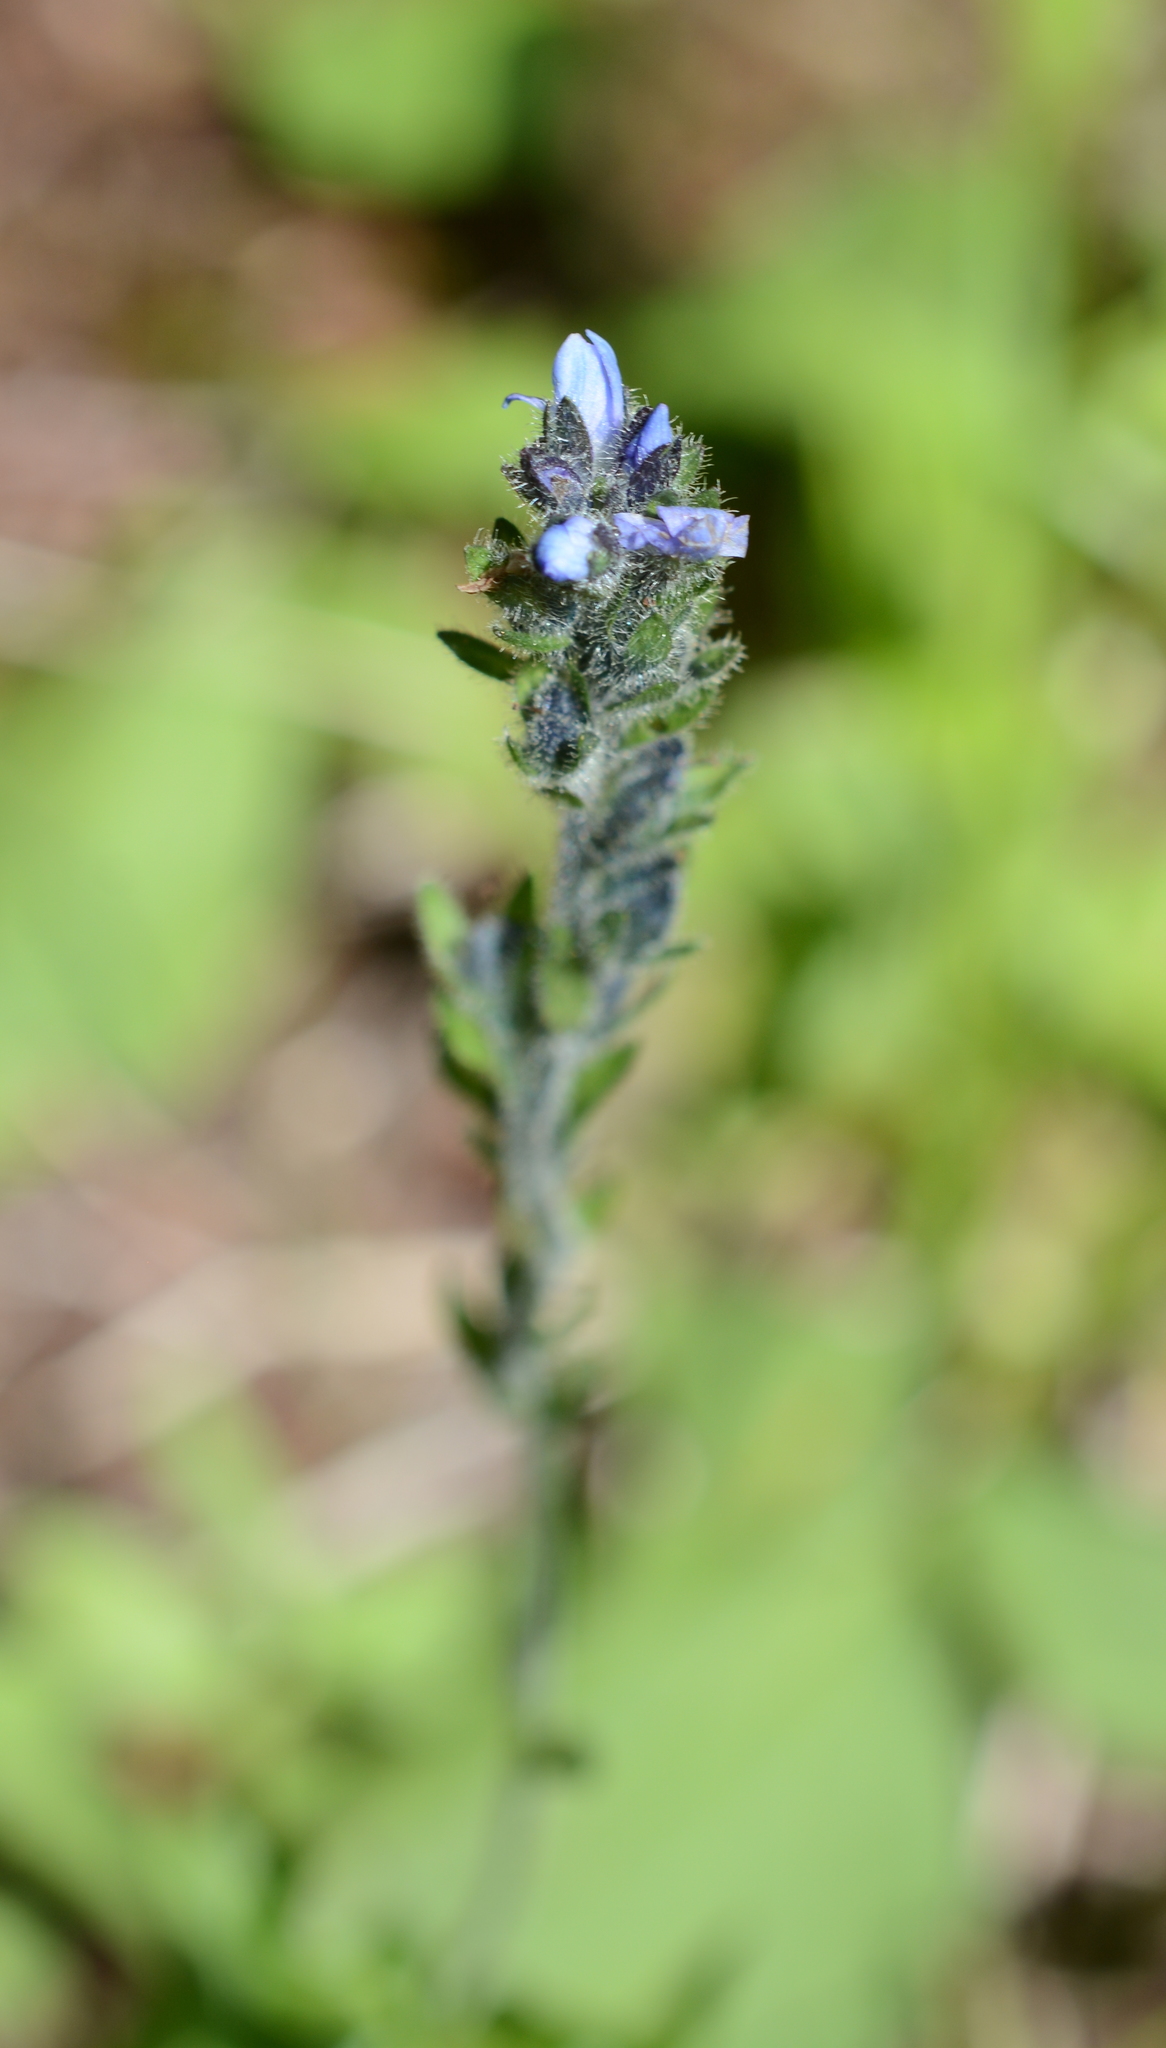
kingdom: Plantae
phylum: Tracheophyta
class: Magnoliopsida
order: Lamiales
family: Plantaginaceae
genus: Veronica
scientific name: Veronica wormskjoldii
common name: American alpine speedwell
